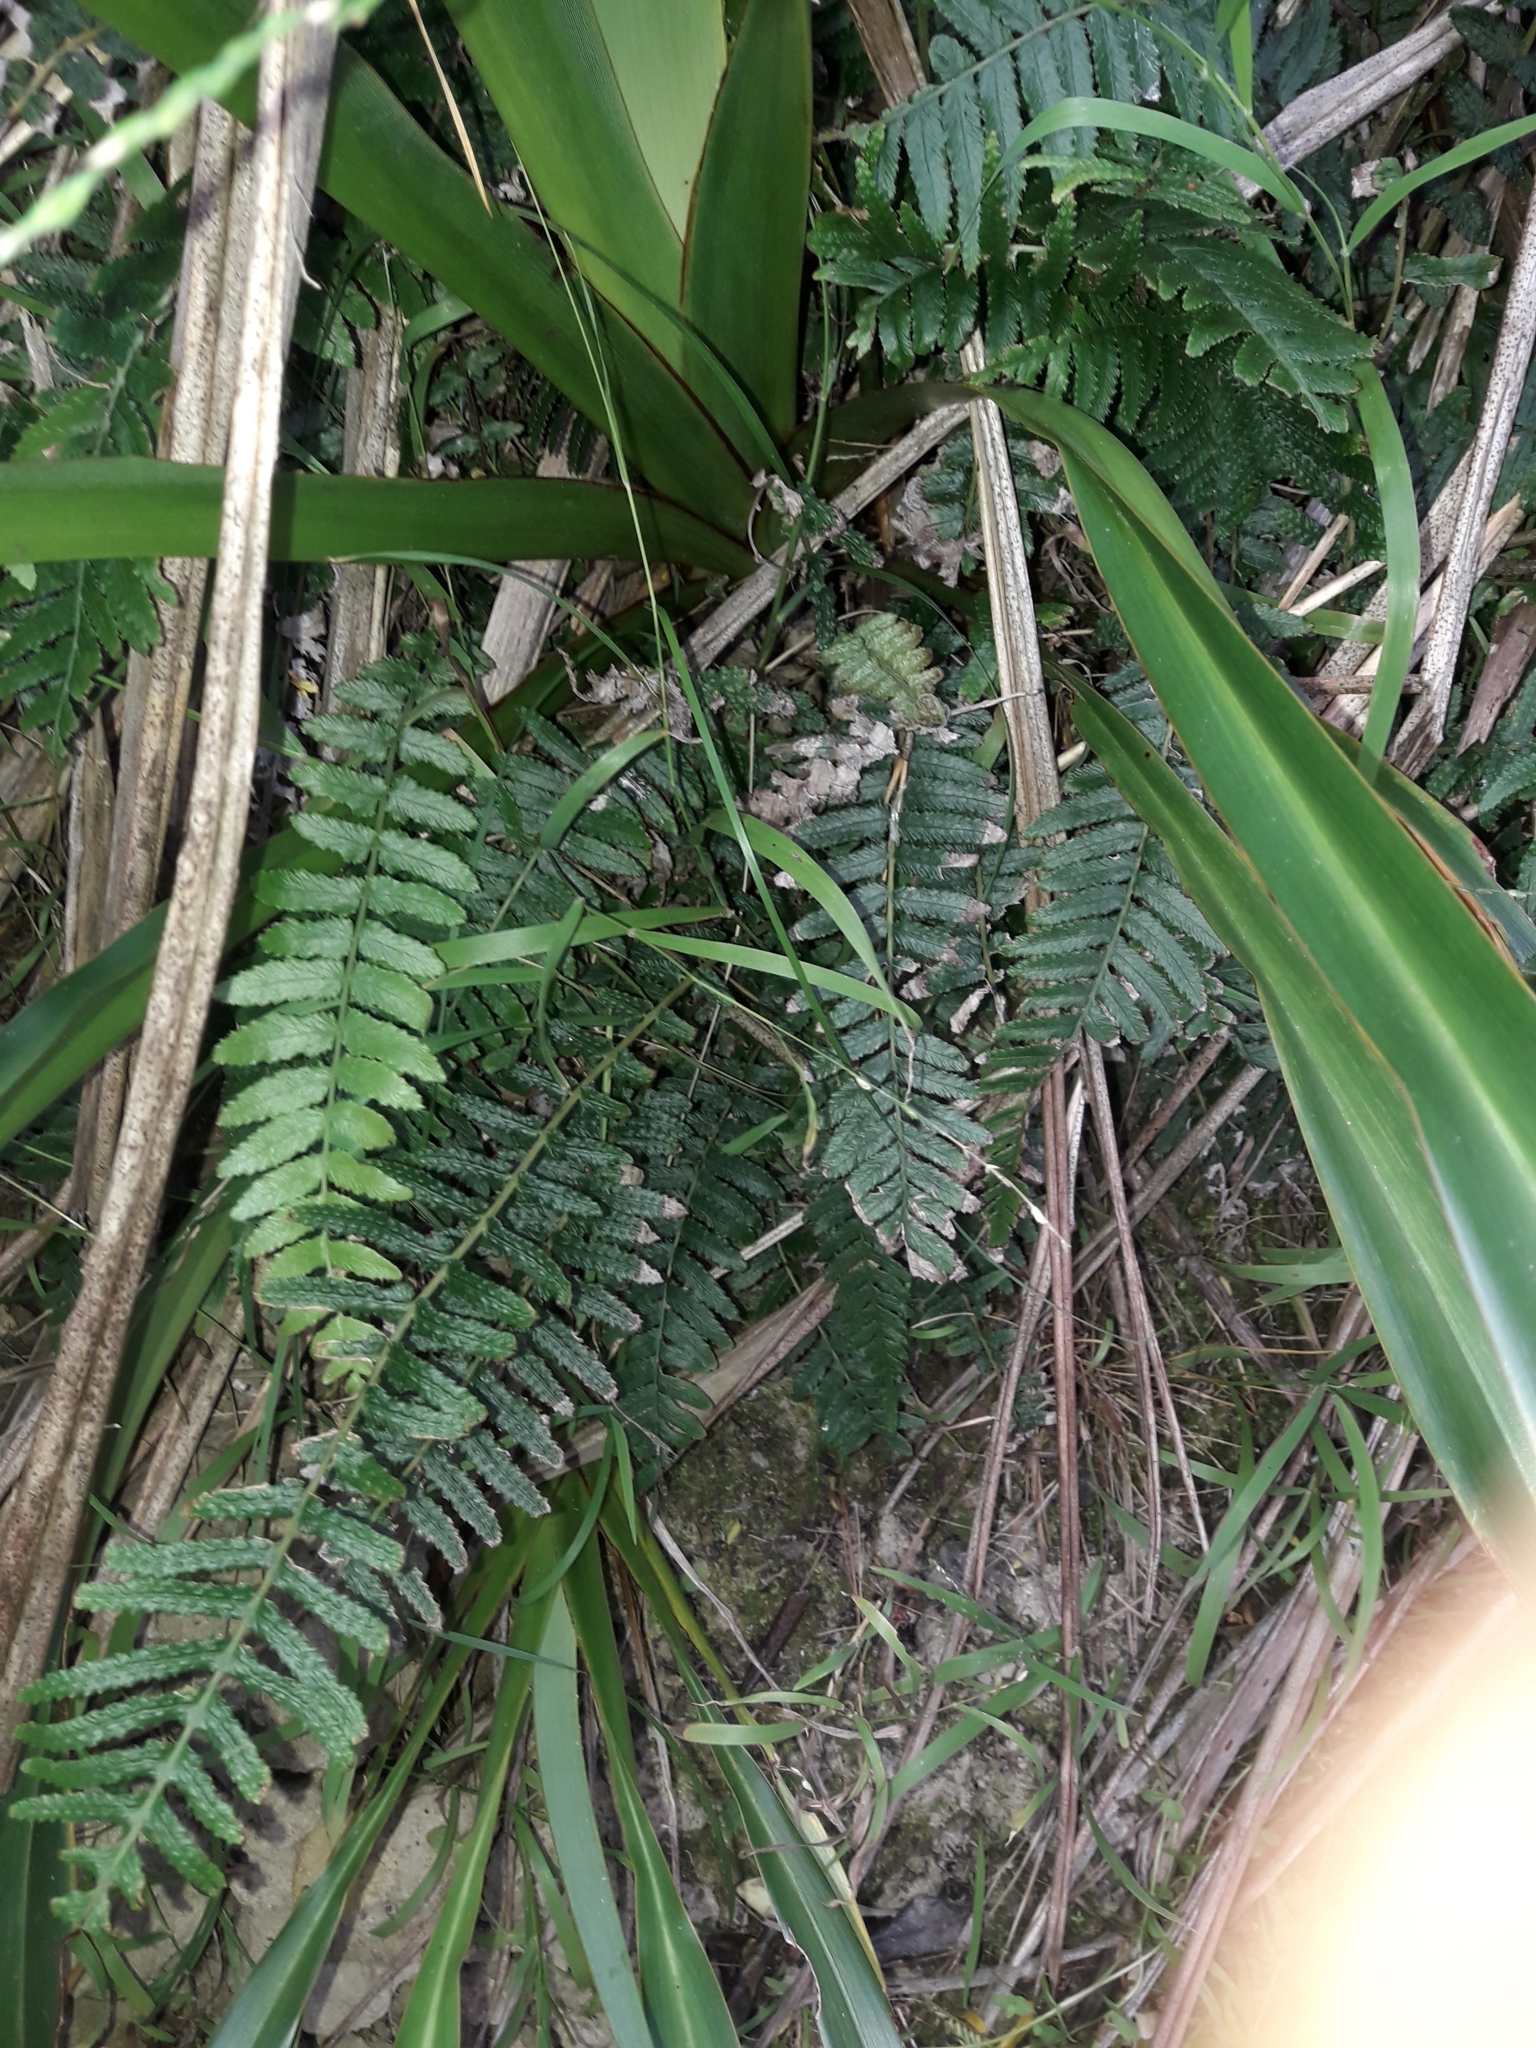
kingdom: Plantae
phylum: Tracheophyta
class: Polypodiopsida
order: Polypodiales
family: Blechnaceae
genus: Doodia
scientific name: Doodia australis
